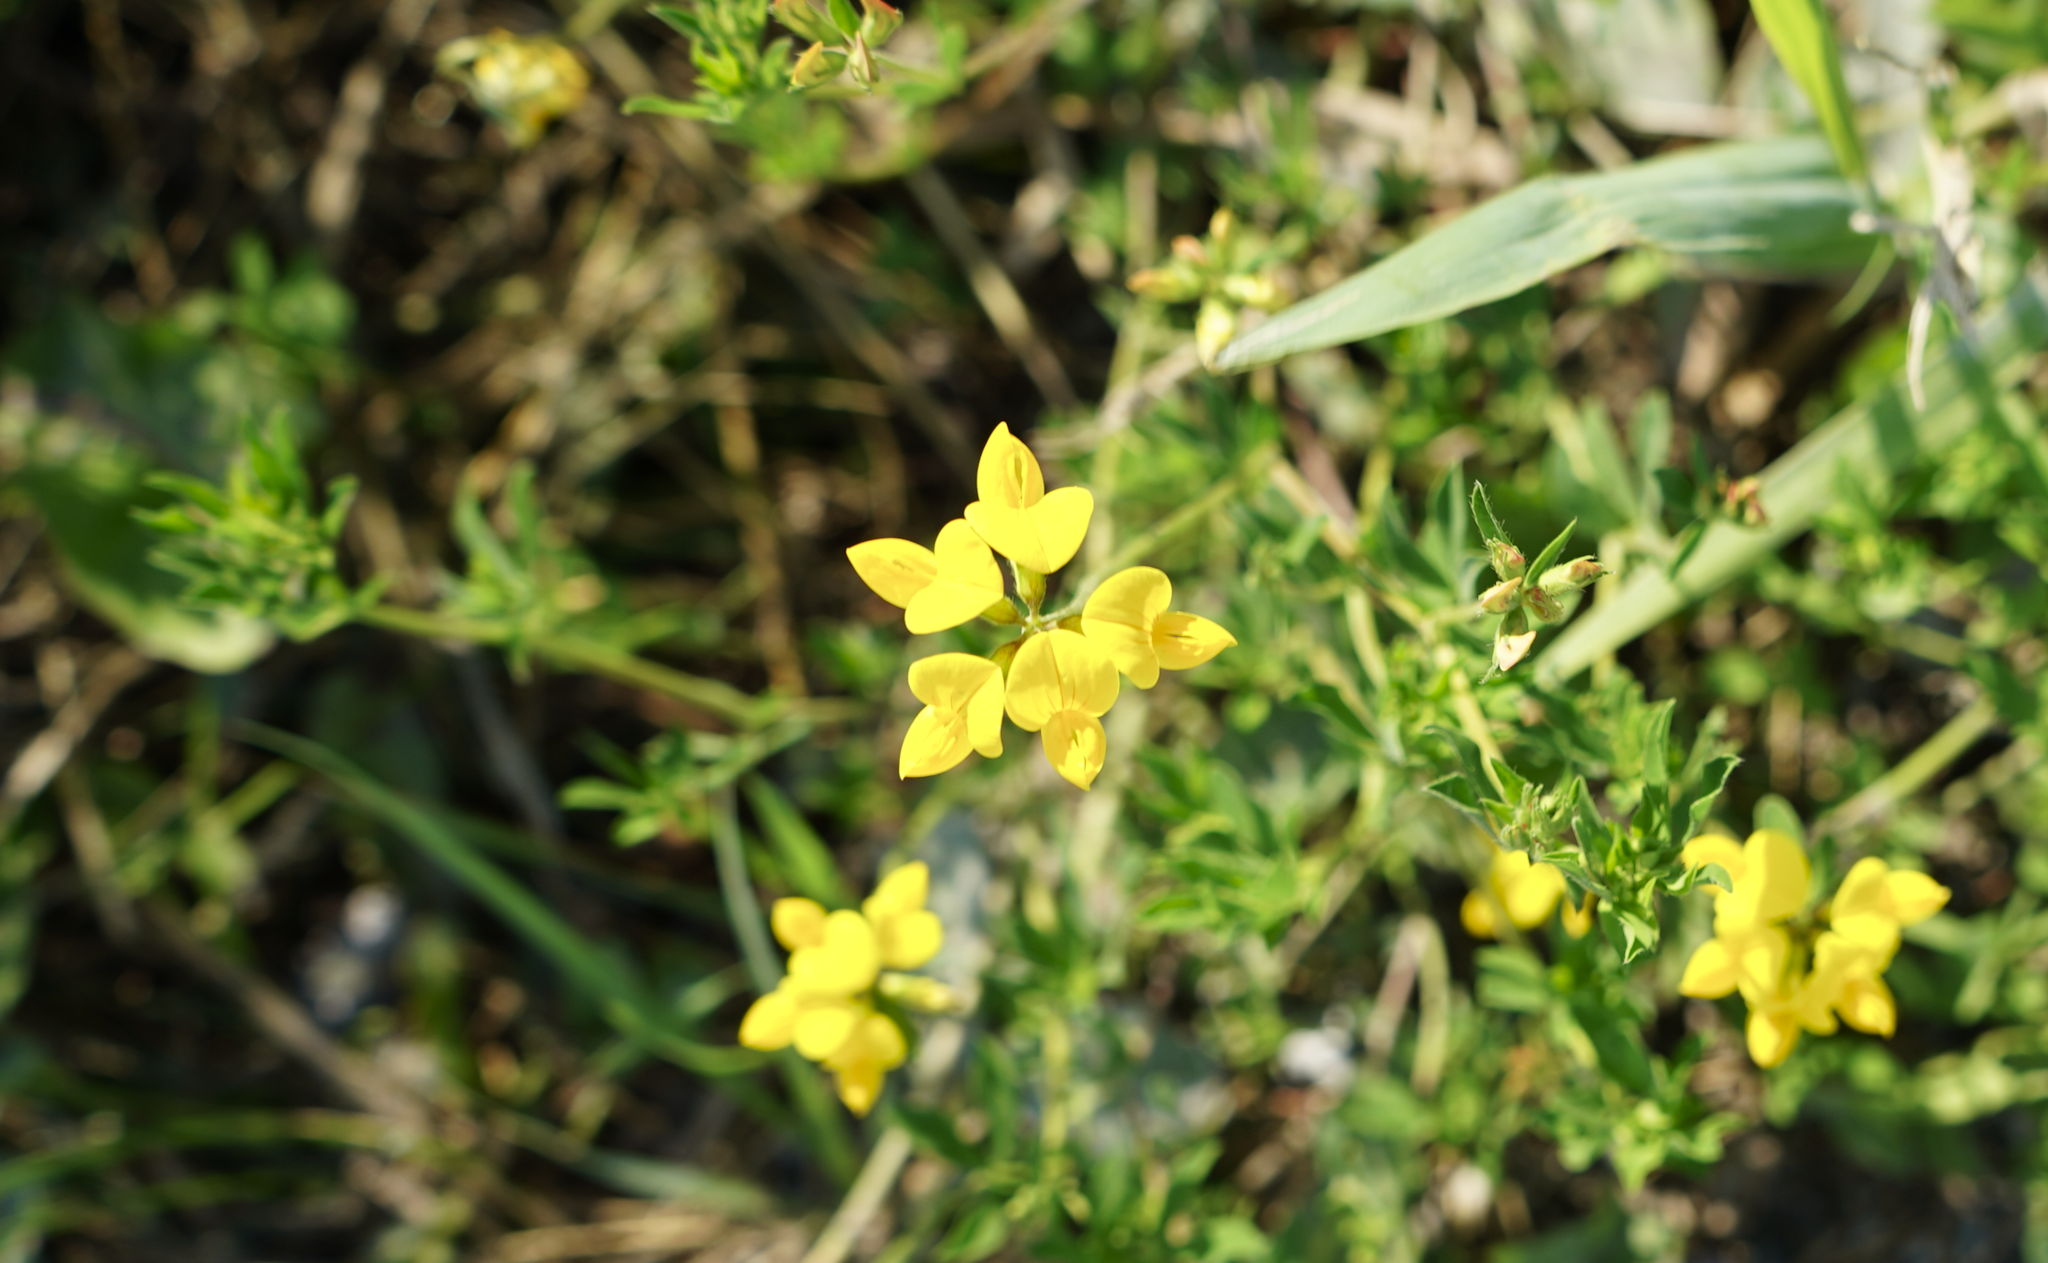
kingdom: Plantae
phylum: Tracheophyta
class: Magnoliopsida
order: Fabales
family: Fabaceae
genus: Lotus
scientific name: Lotus corniculatus
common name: Common bird's-foot-trefoil
